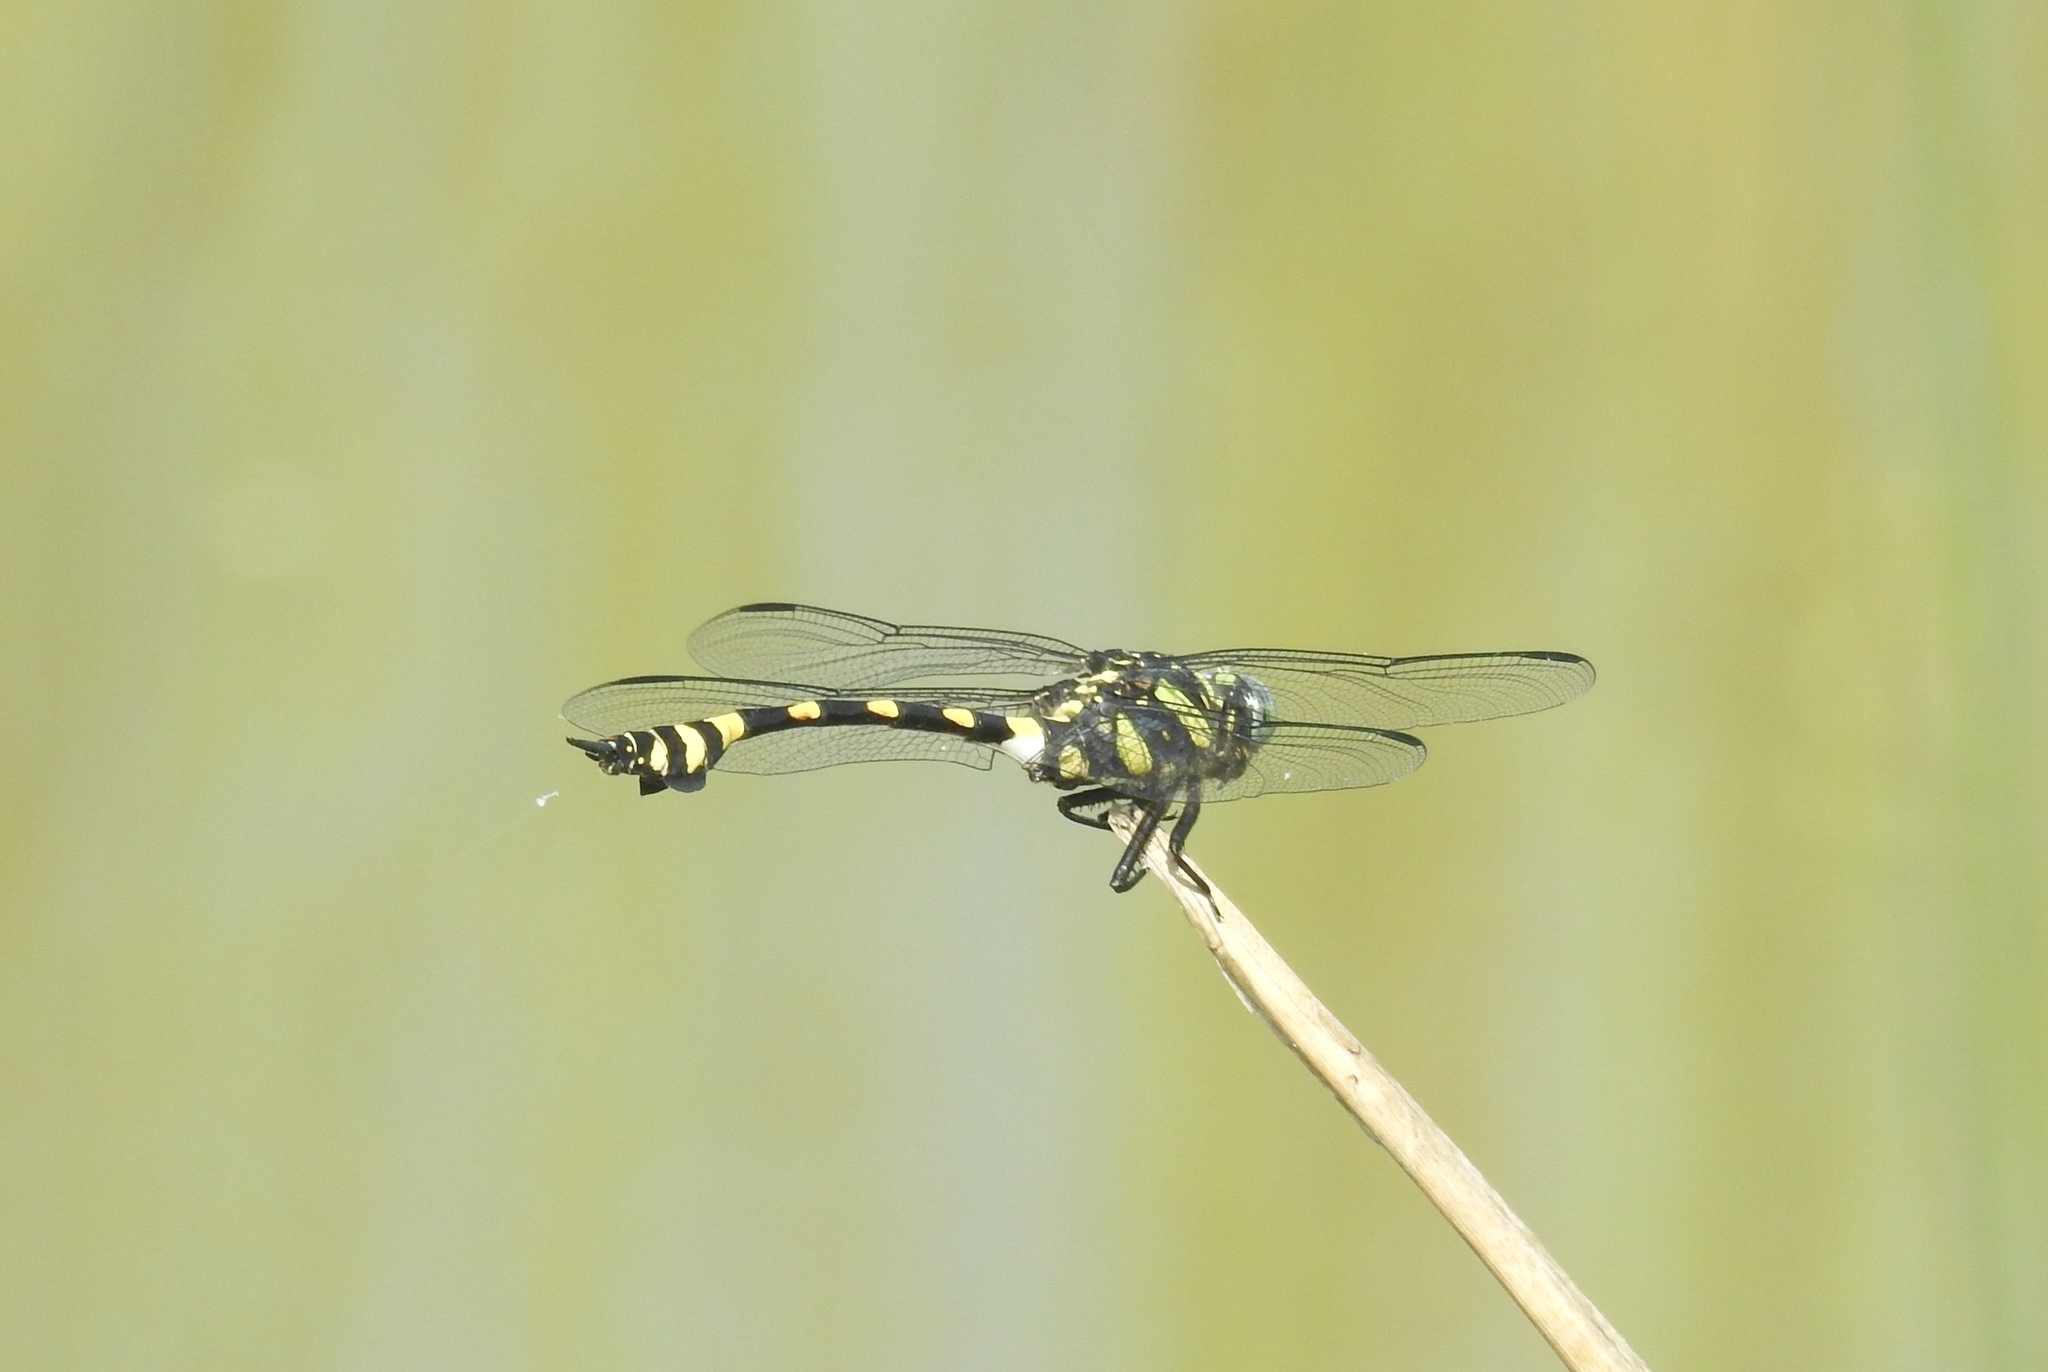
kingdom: Animalia
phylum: Arthropoda
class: Insecta
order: Odonata
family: Gomphidae
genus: Ictinogomphus
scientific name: Ictinogomphus rapax
